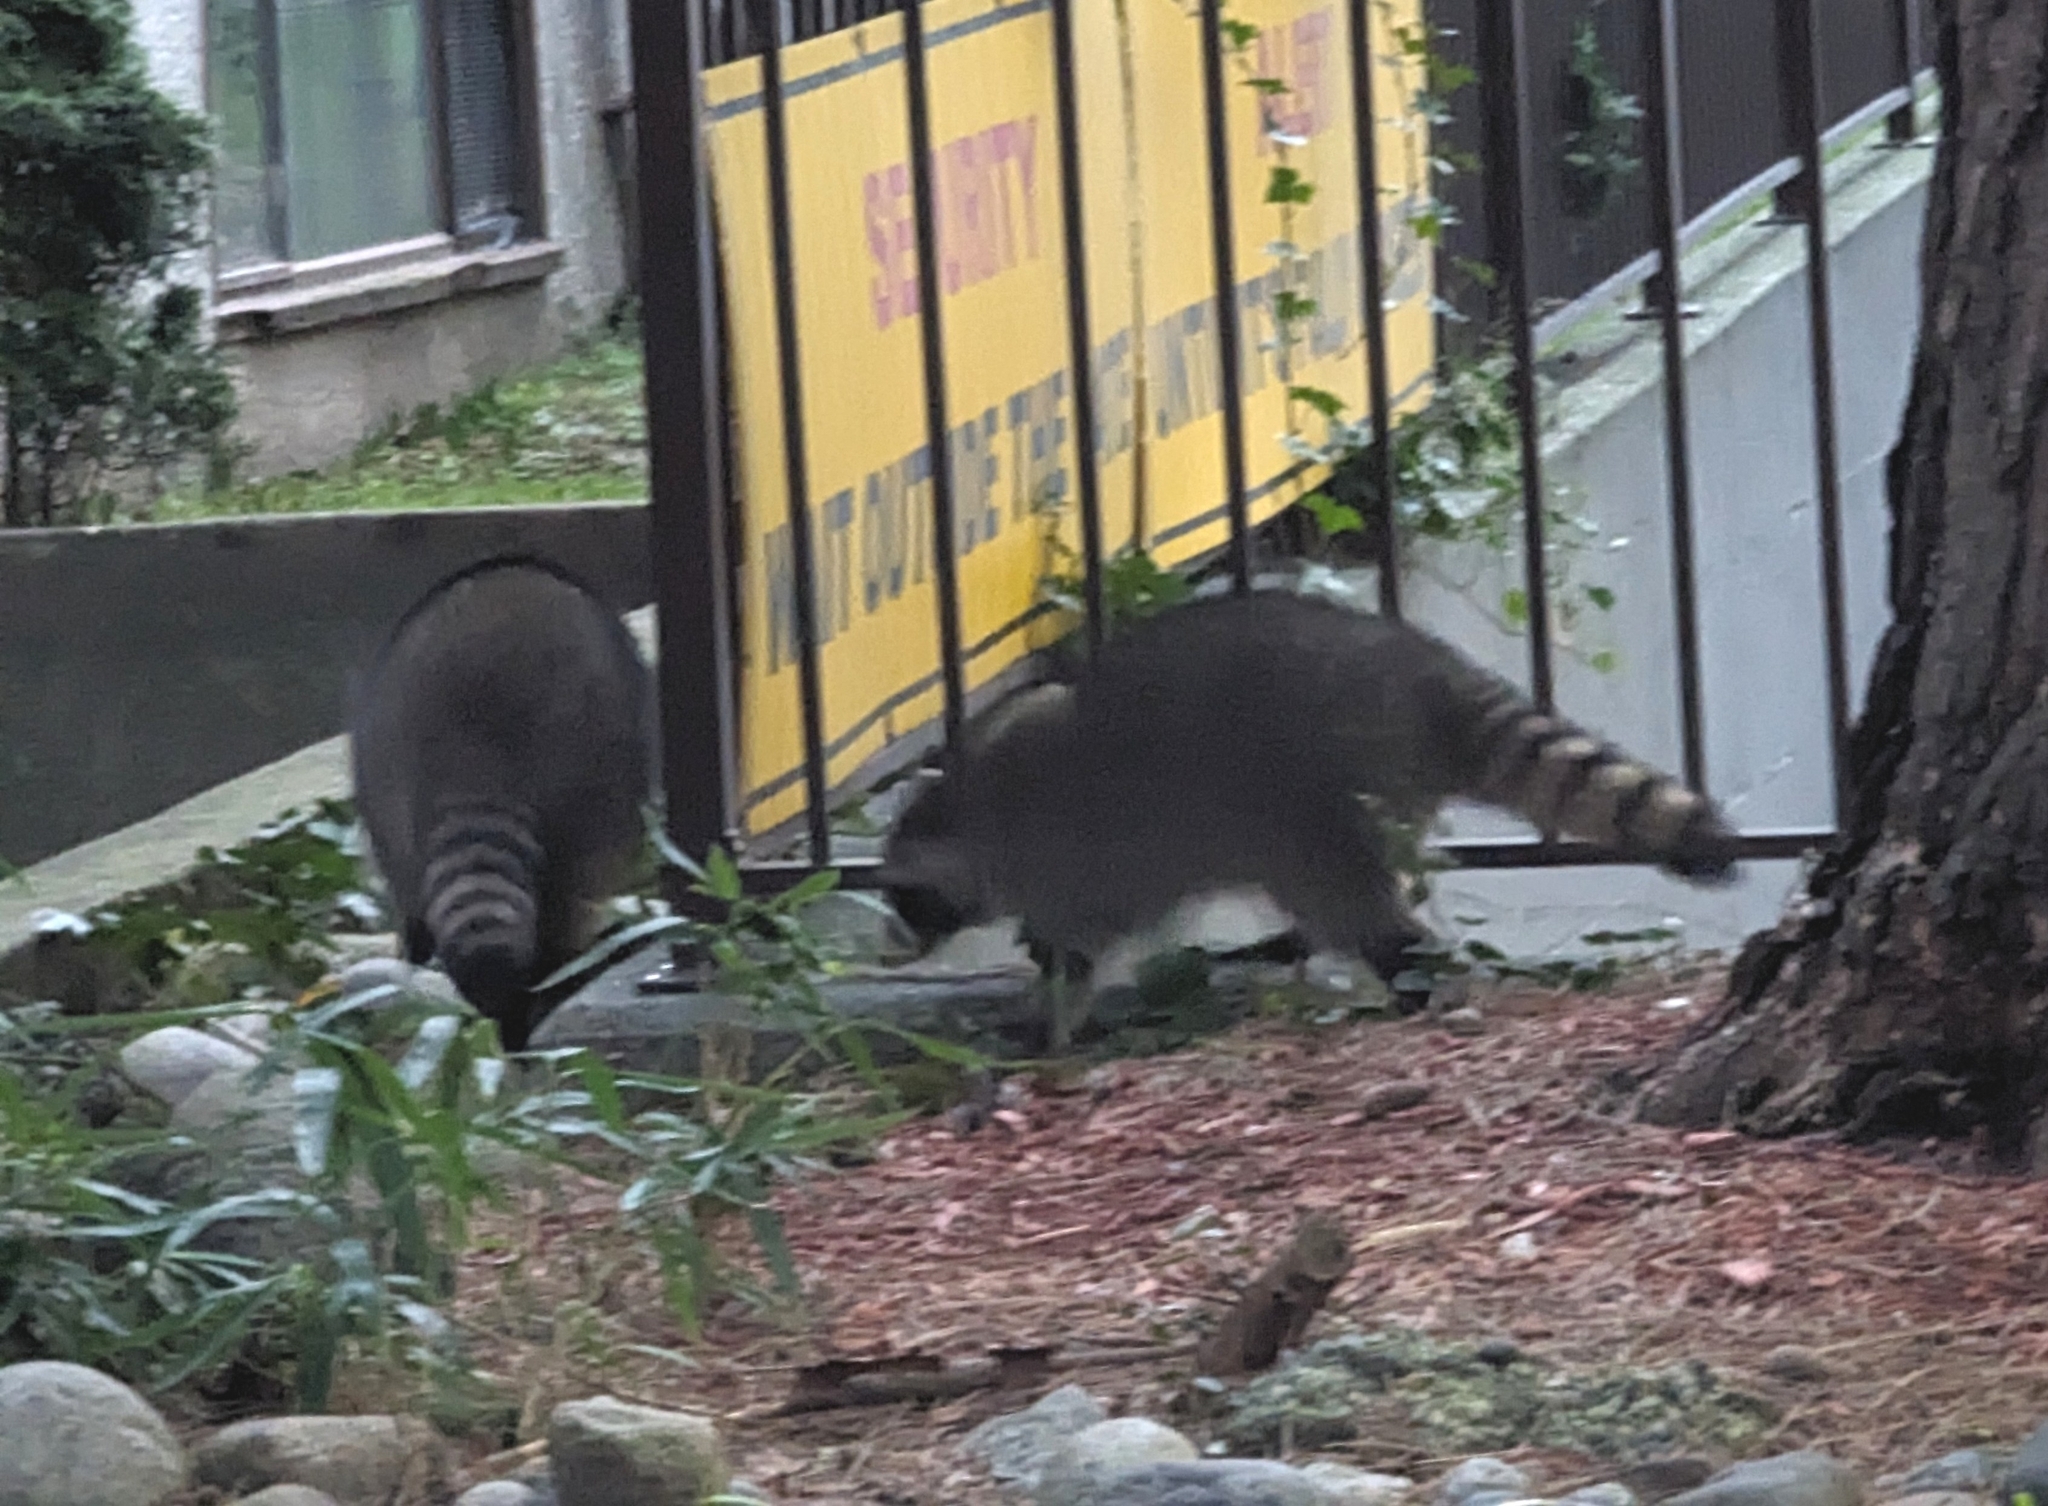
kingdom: Animalia
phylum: Chordata
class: Mammalia
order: Carnivora
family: Procyonidae
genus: Procyon
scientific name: Procyon lotor
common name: Raccoon
